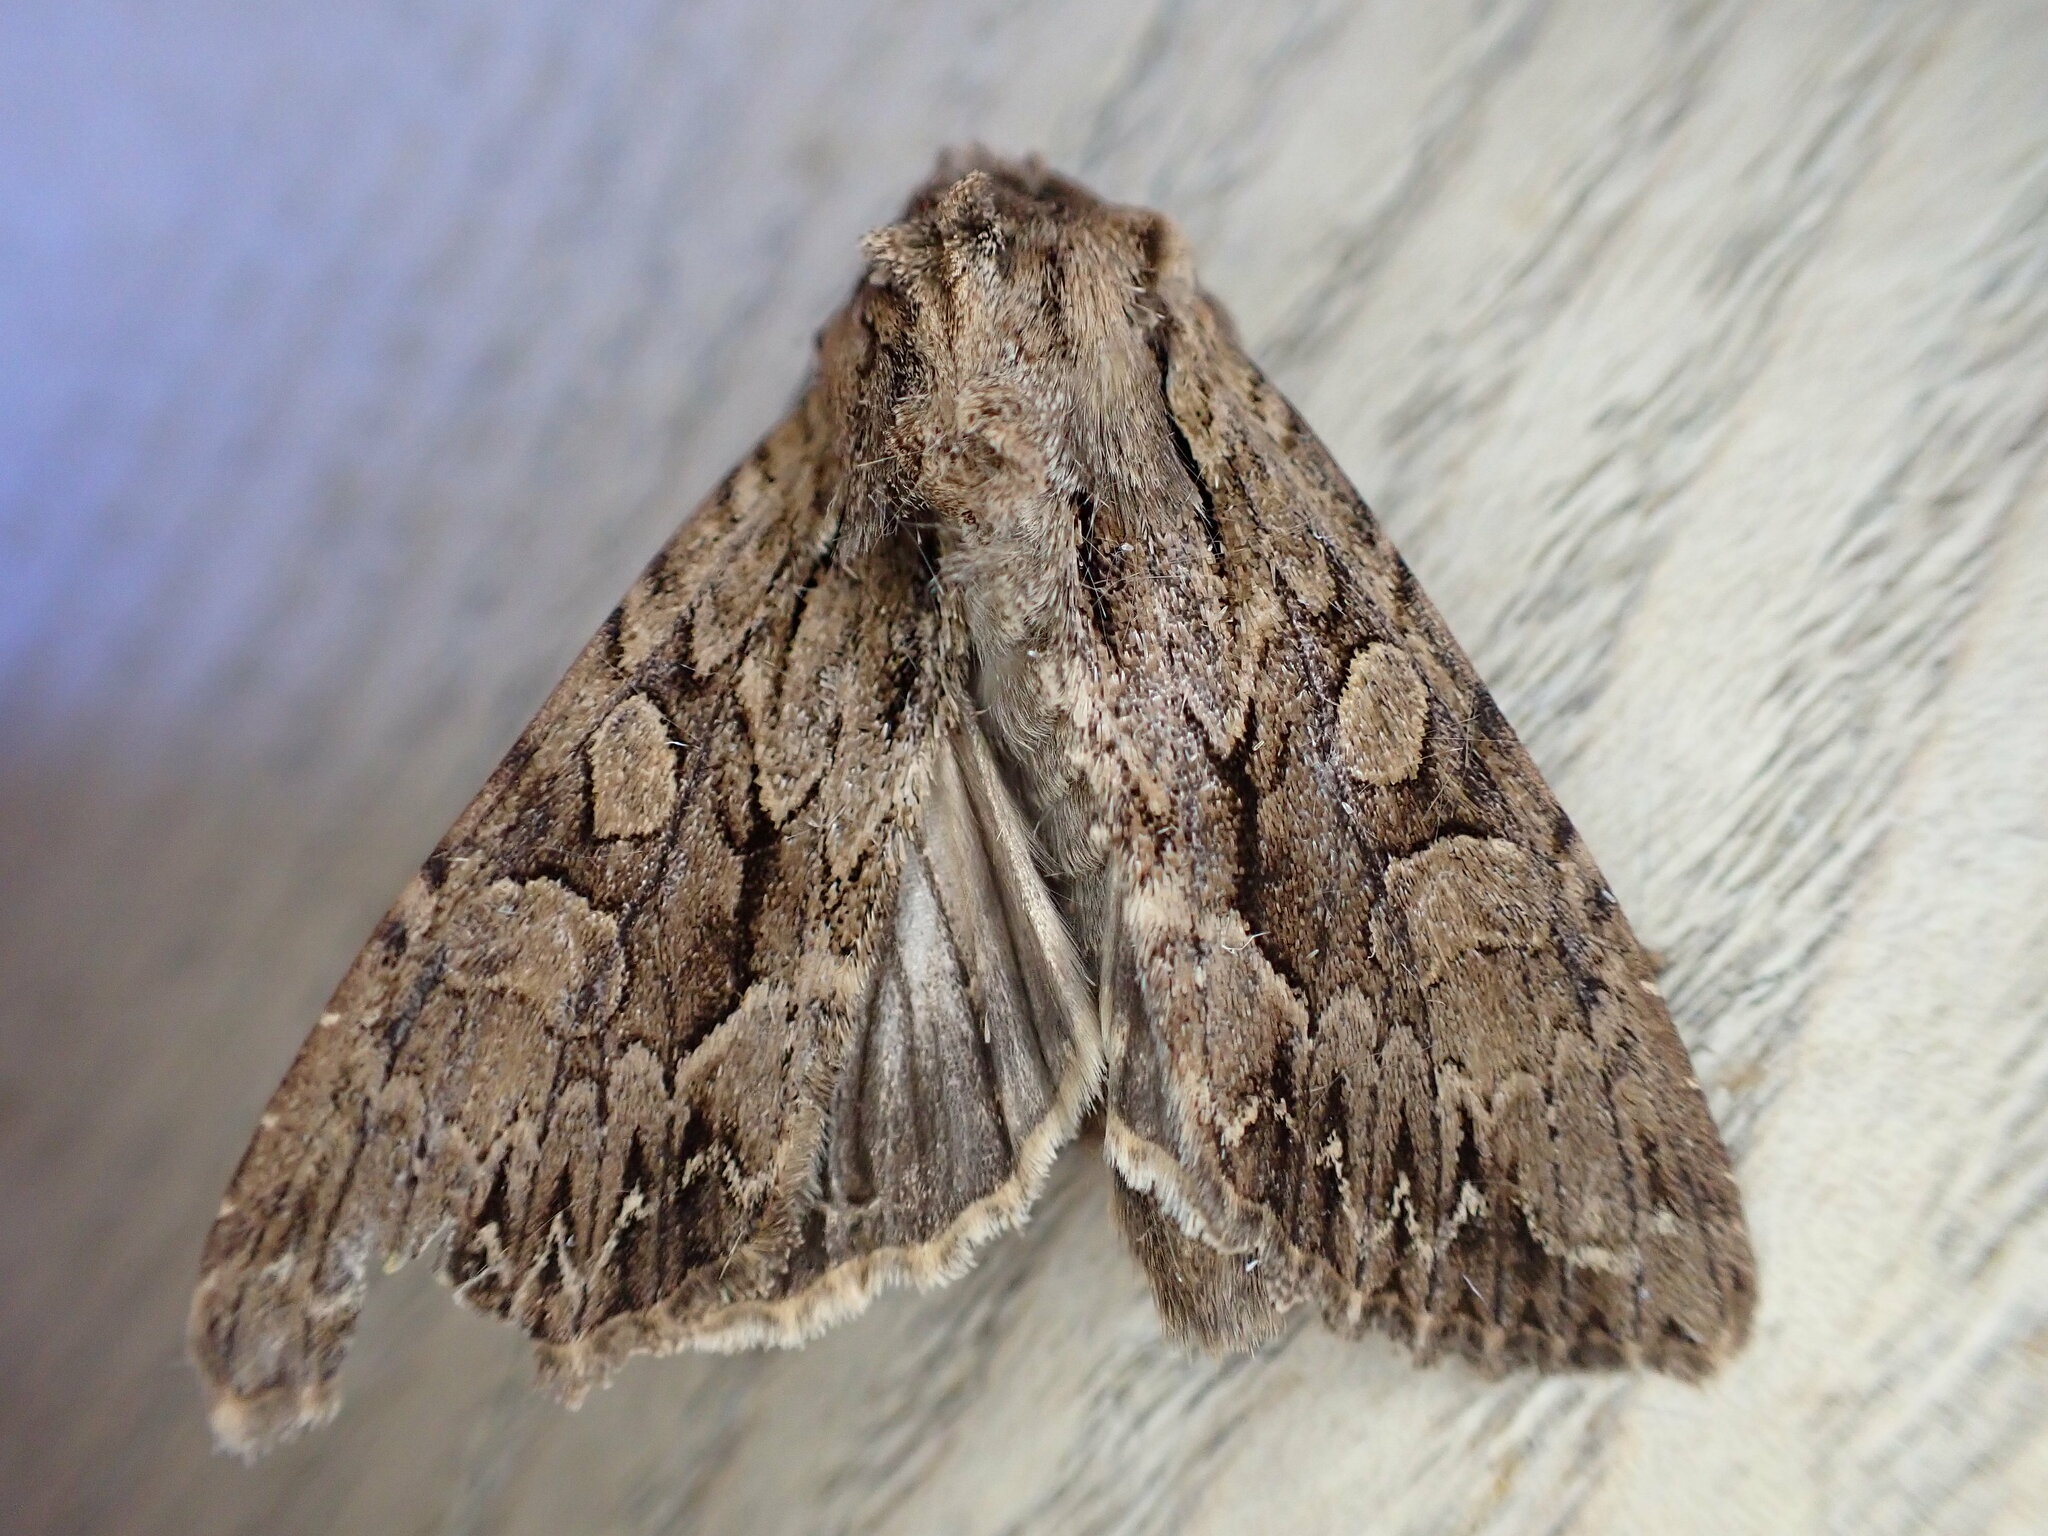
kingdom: Animalia
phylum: Arthropoda
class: Insecta
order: Lepidoptera
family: Noctuidae
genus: Apamea
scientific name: Apamea monoglypha
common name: Dark arches
